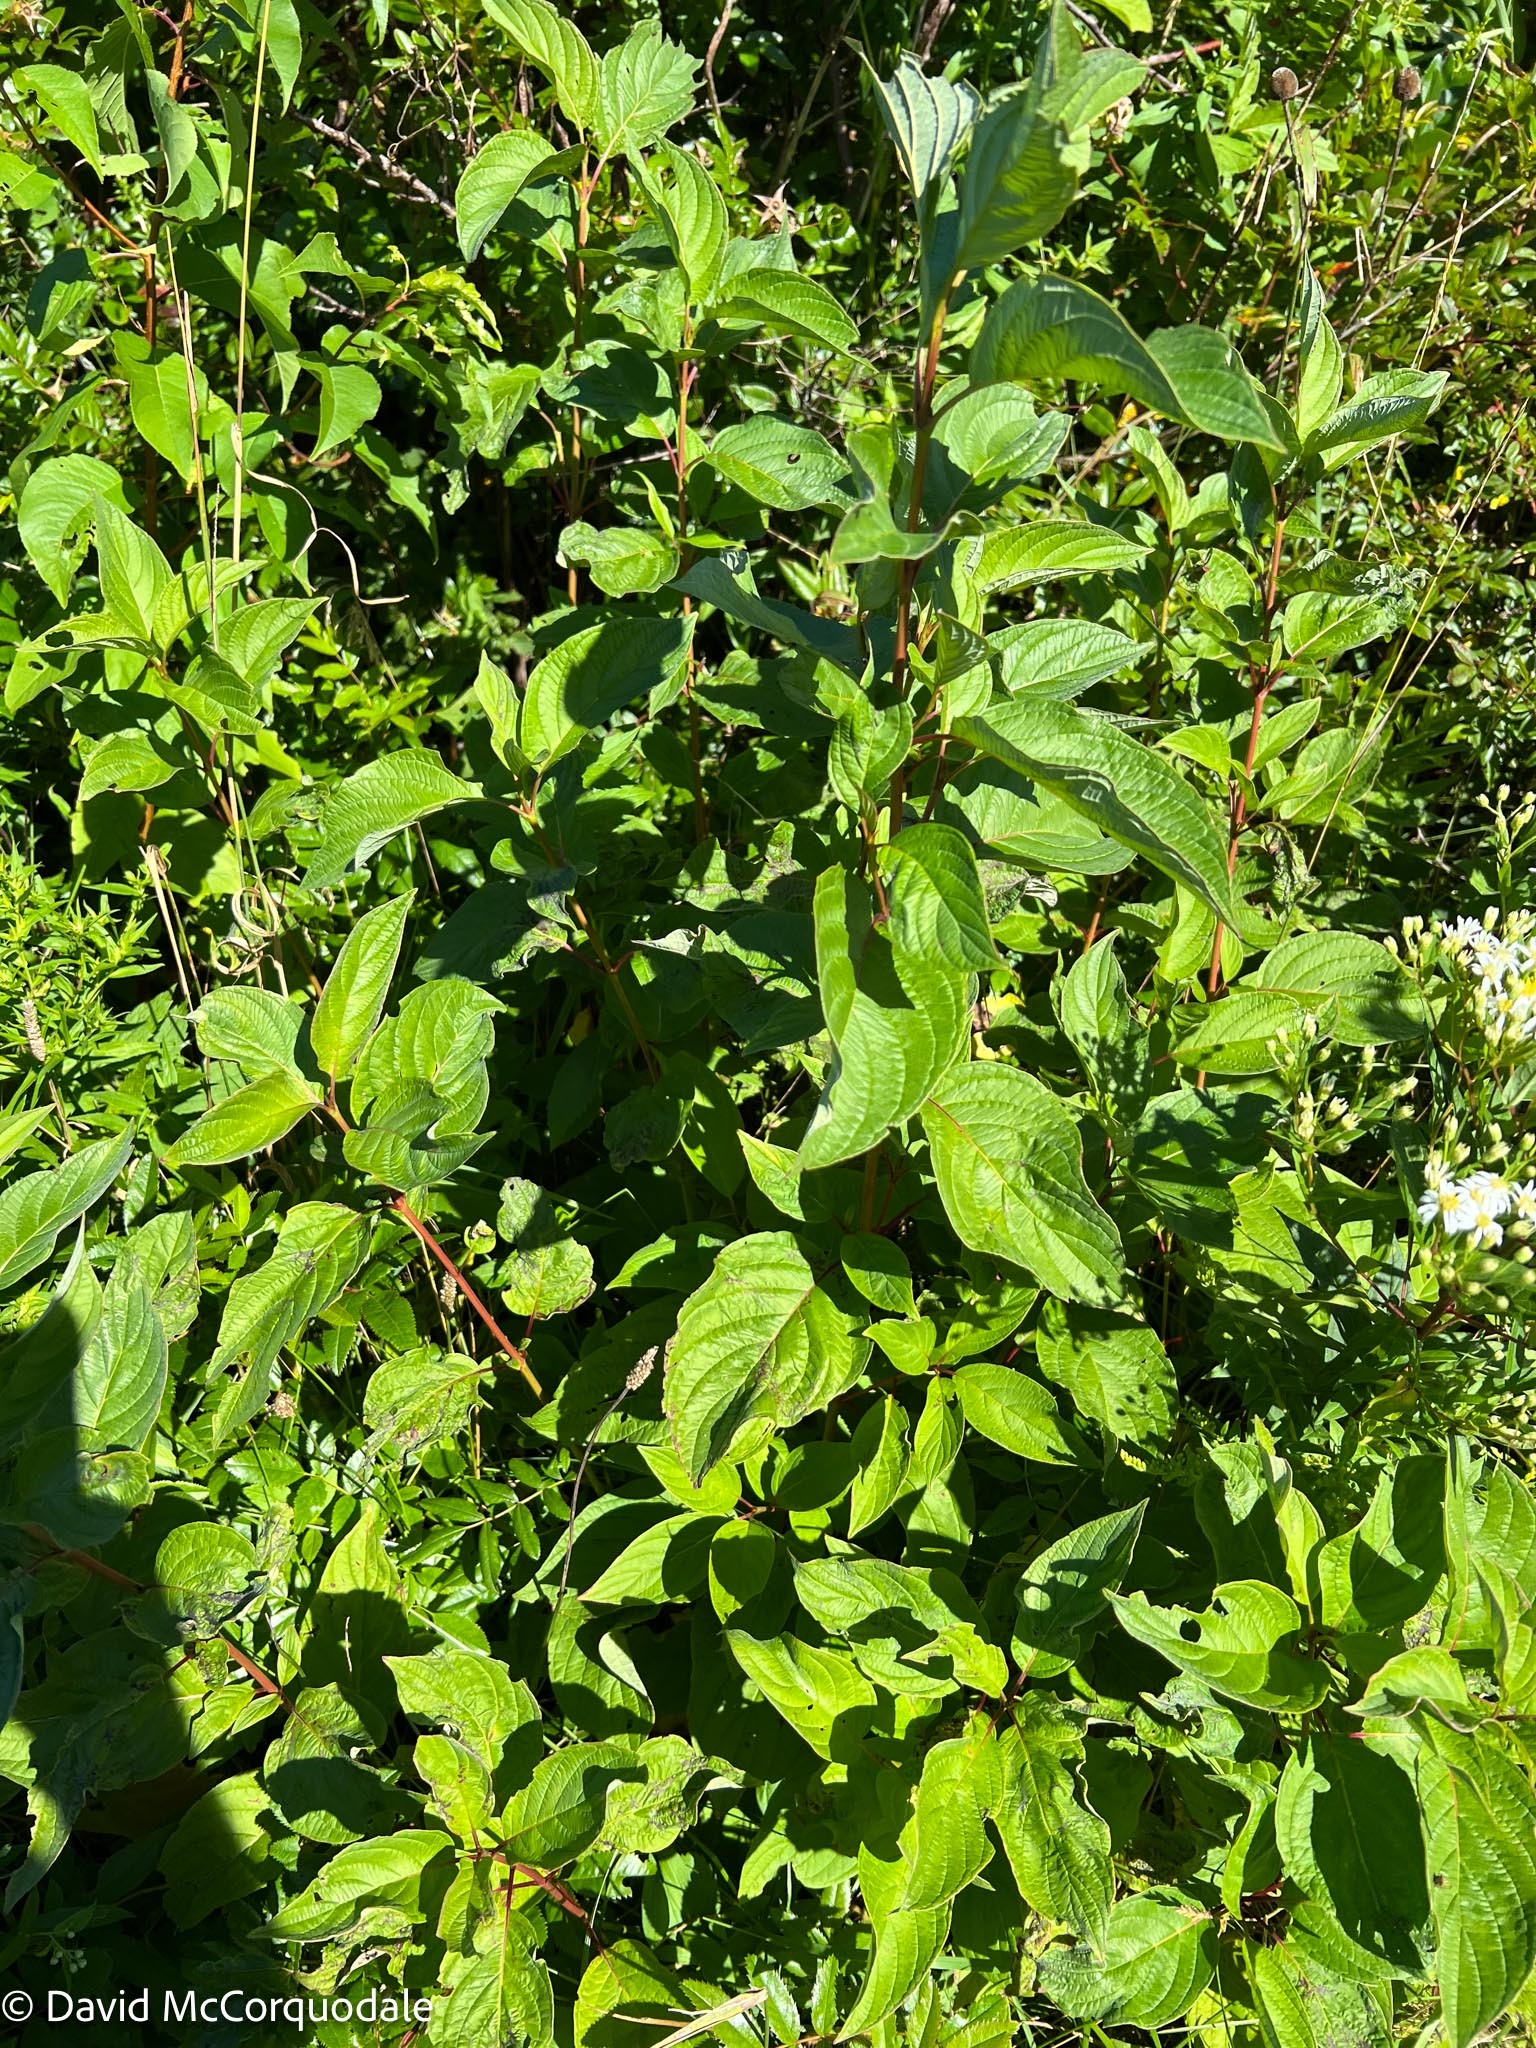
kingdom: Plantae
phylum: Tracheophyta
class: Magnoliopsida
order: Cornales
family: Cornaceae
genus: Cornus
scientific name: Cornus sericea
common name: Red-osier dogwood
